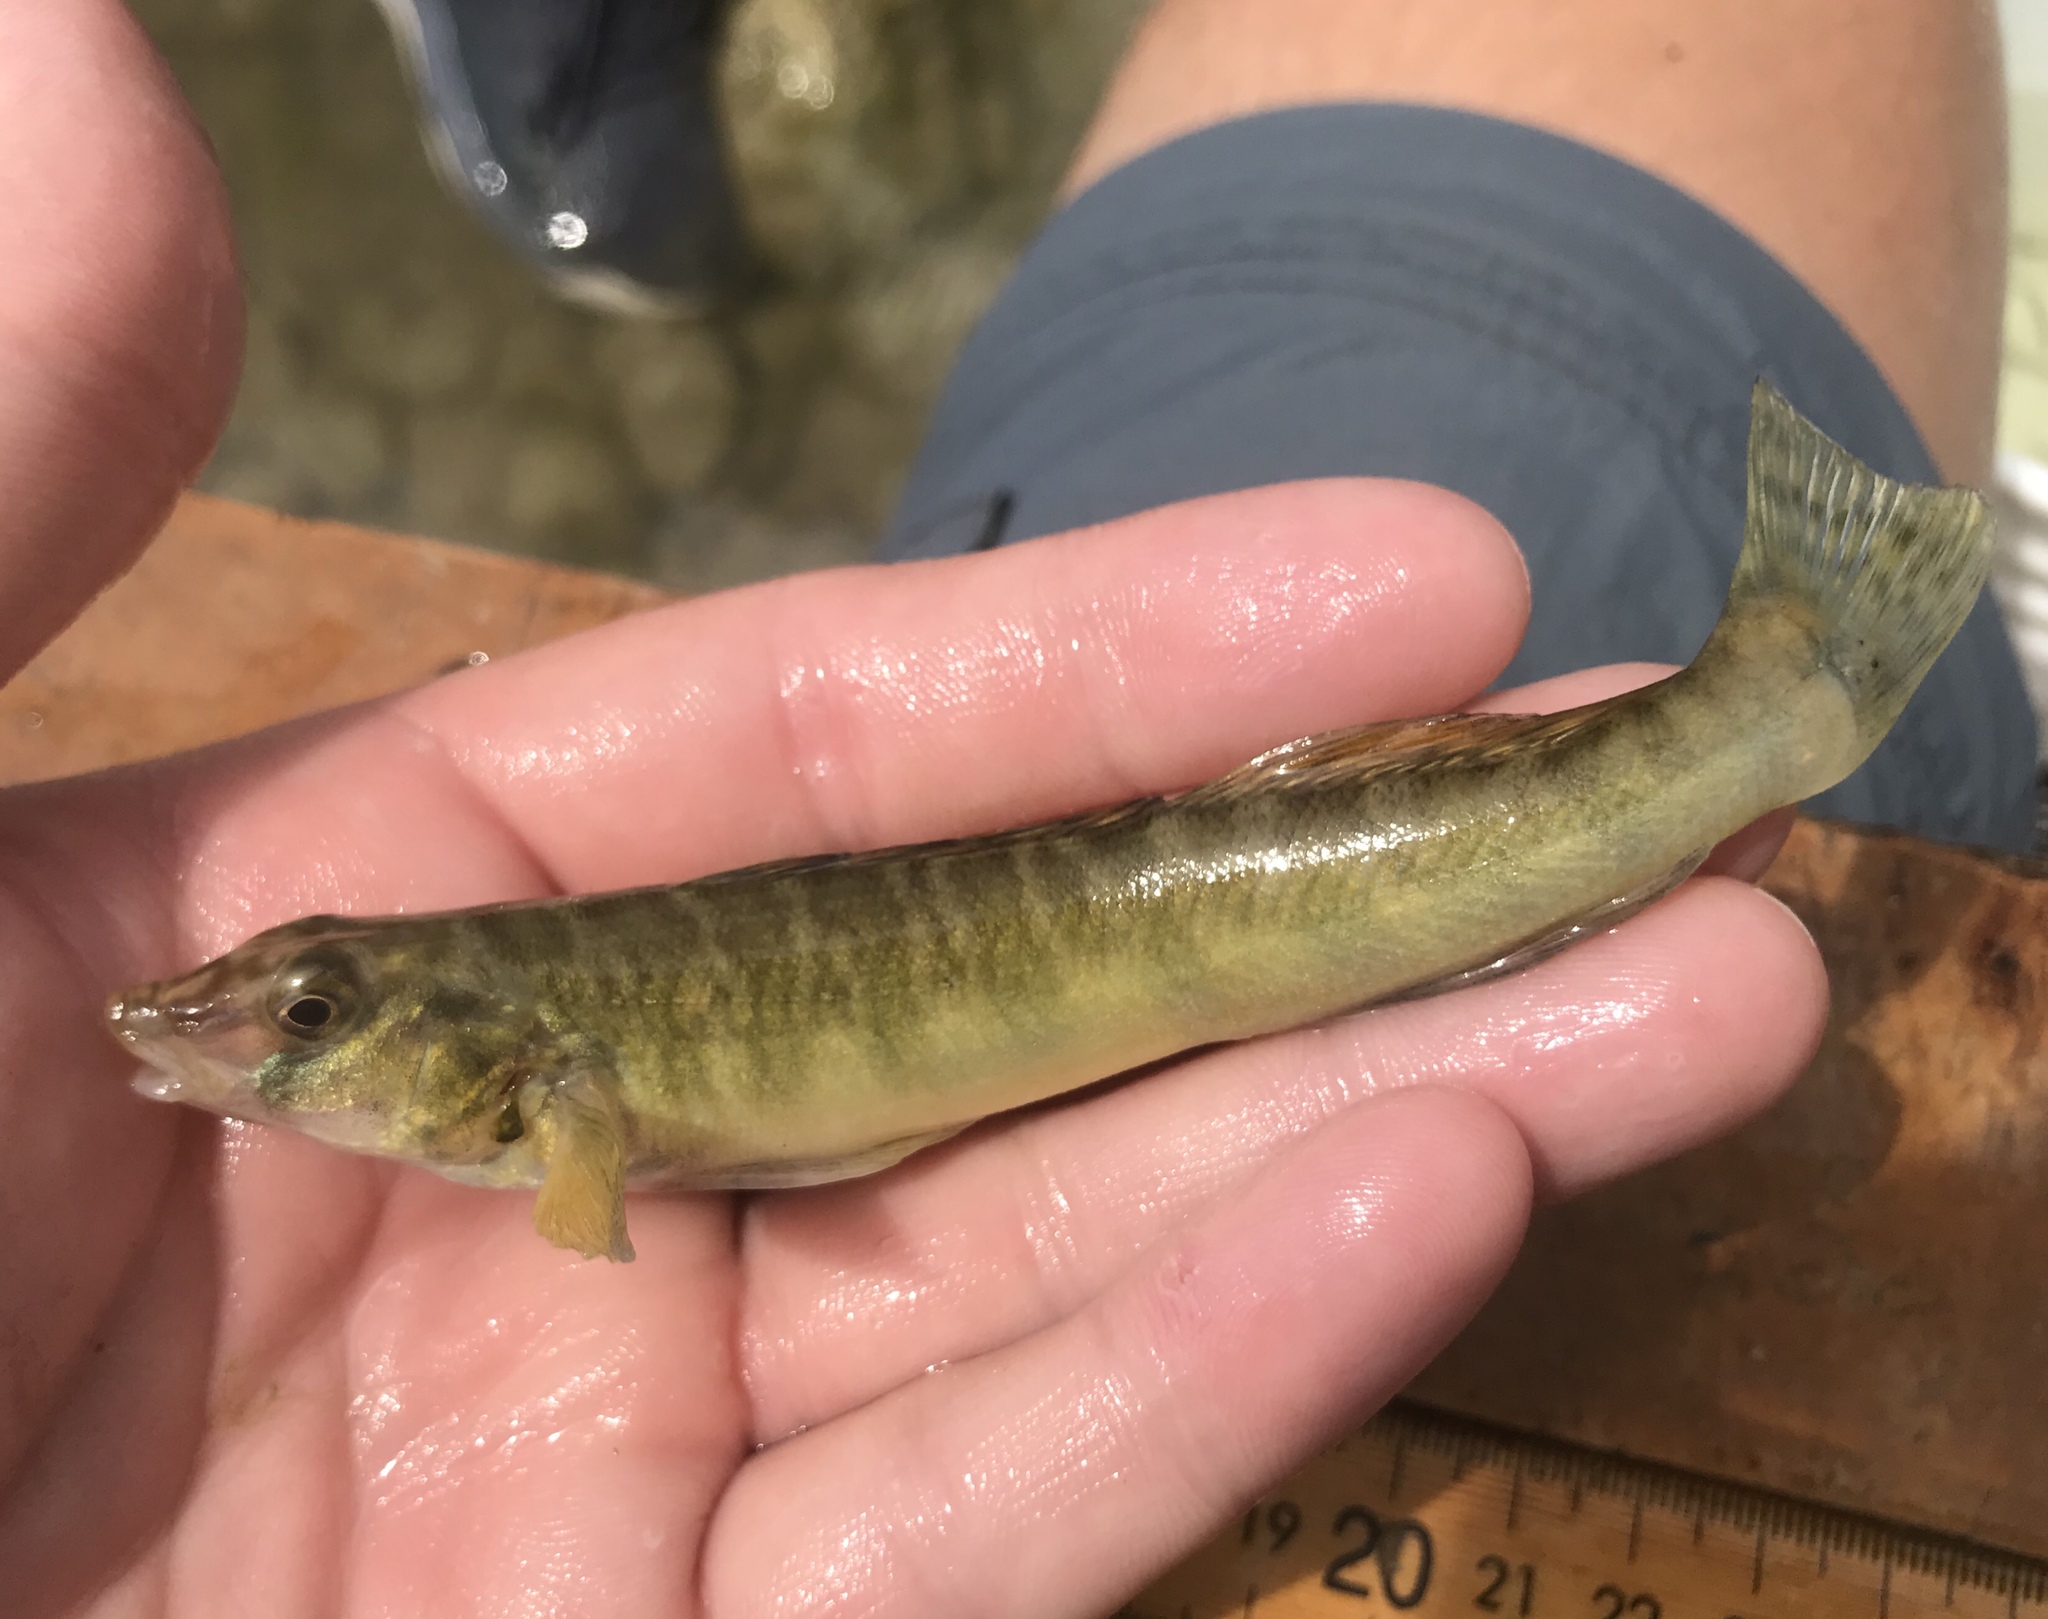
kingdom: Animalia
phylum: Chordata
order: Perciformes
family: Percidae
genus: Percina
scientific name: Percina carbonaria
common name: Texas logperch
